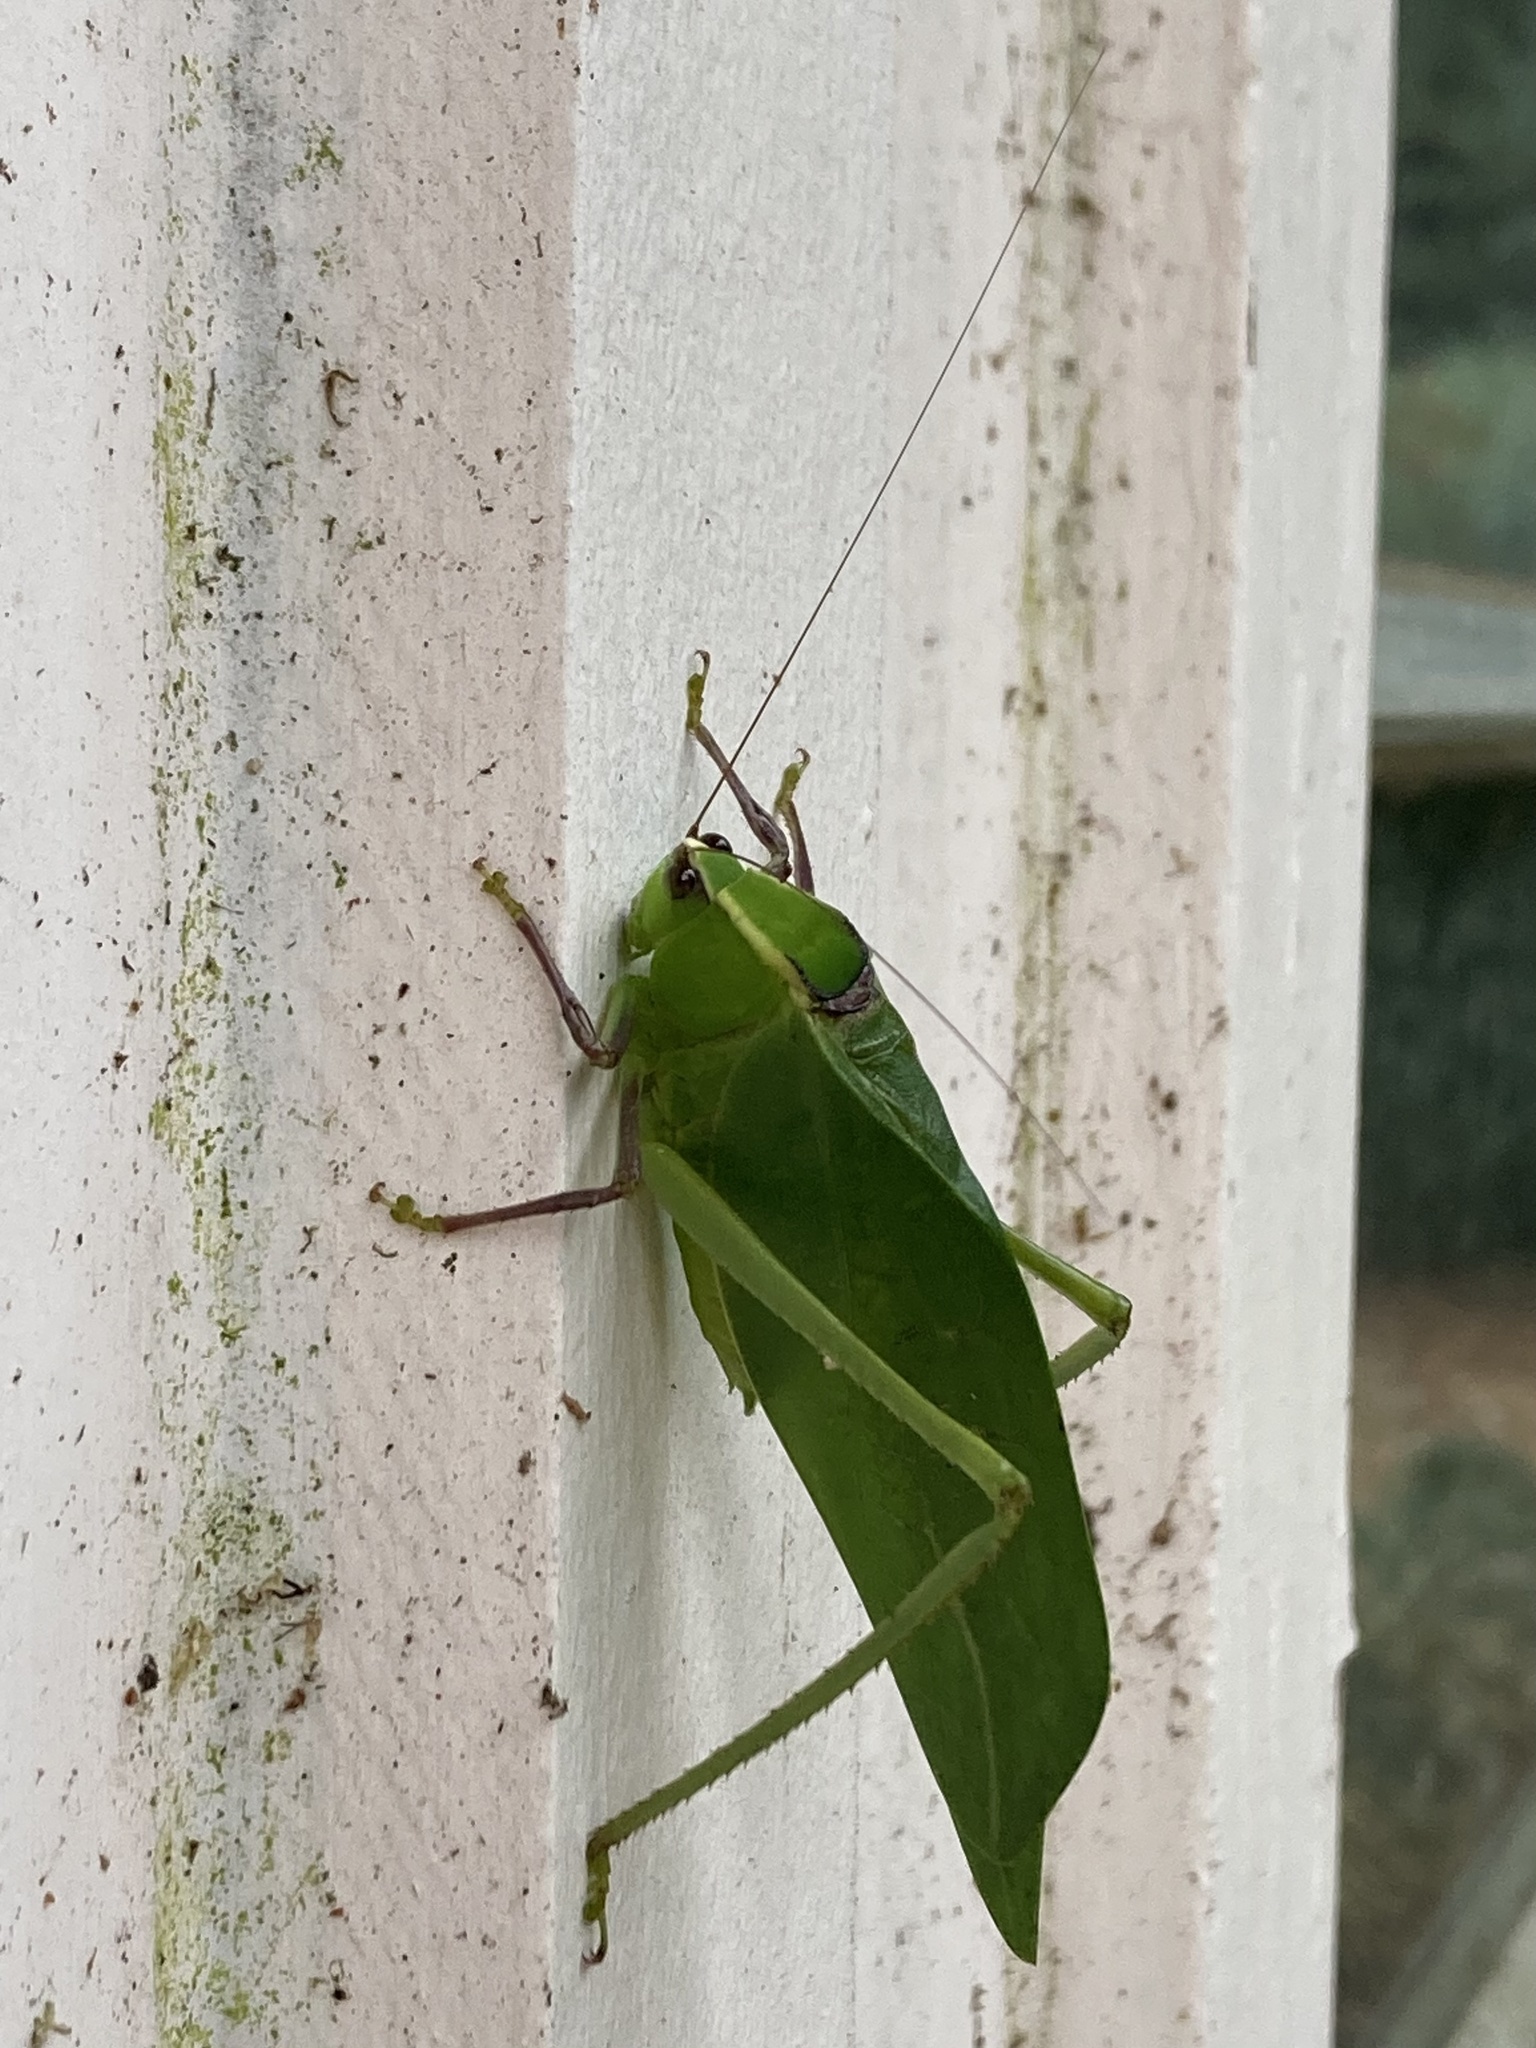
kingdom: Animalia
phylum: Arthropoda
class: Insecta
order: Orthoptera
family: Tettigoniidae
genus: Stilpnochlora
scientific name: Stilpnochlora couloniana
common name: Giant katydid
